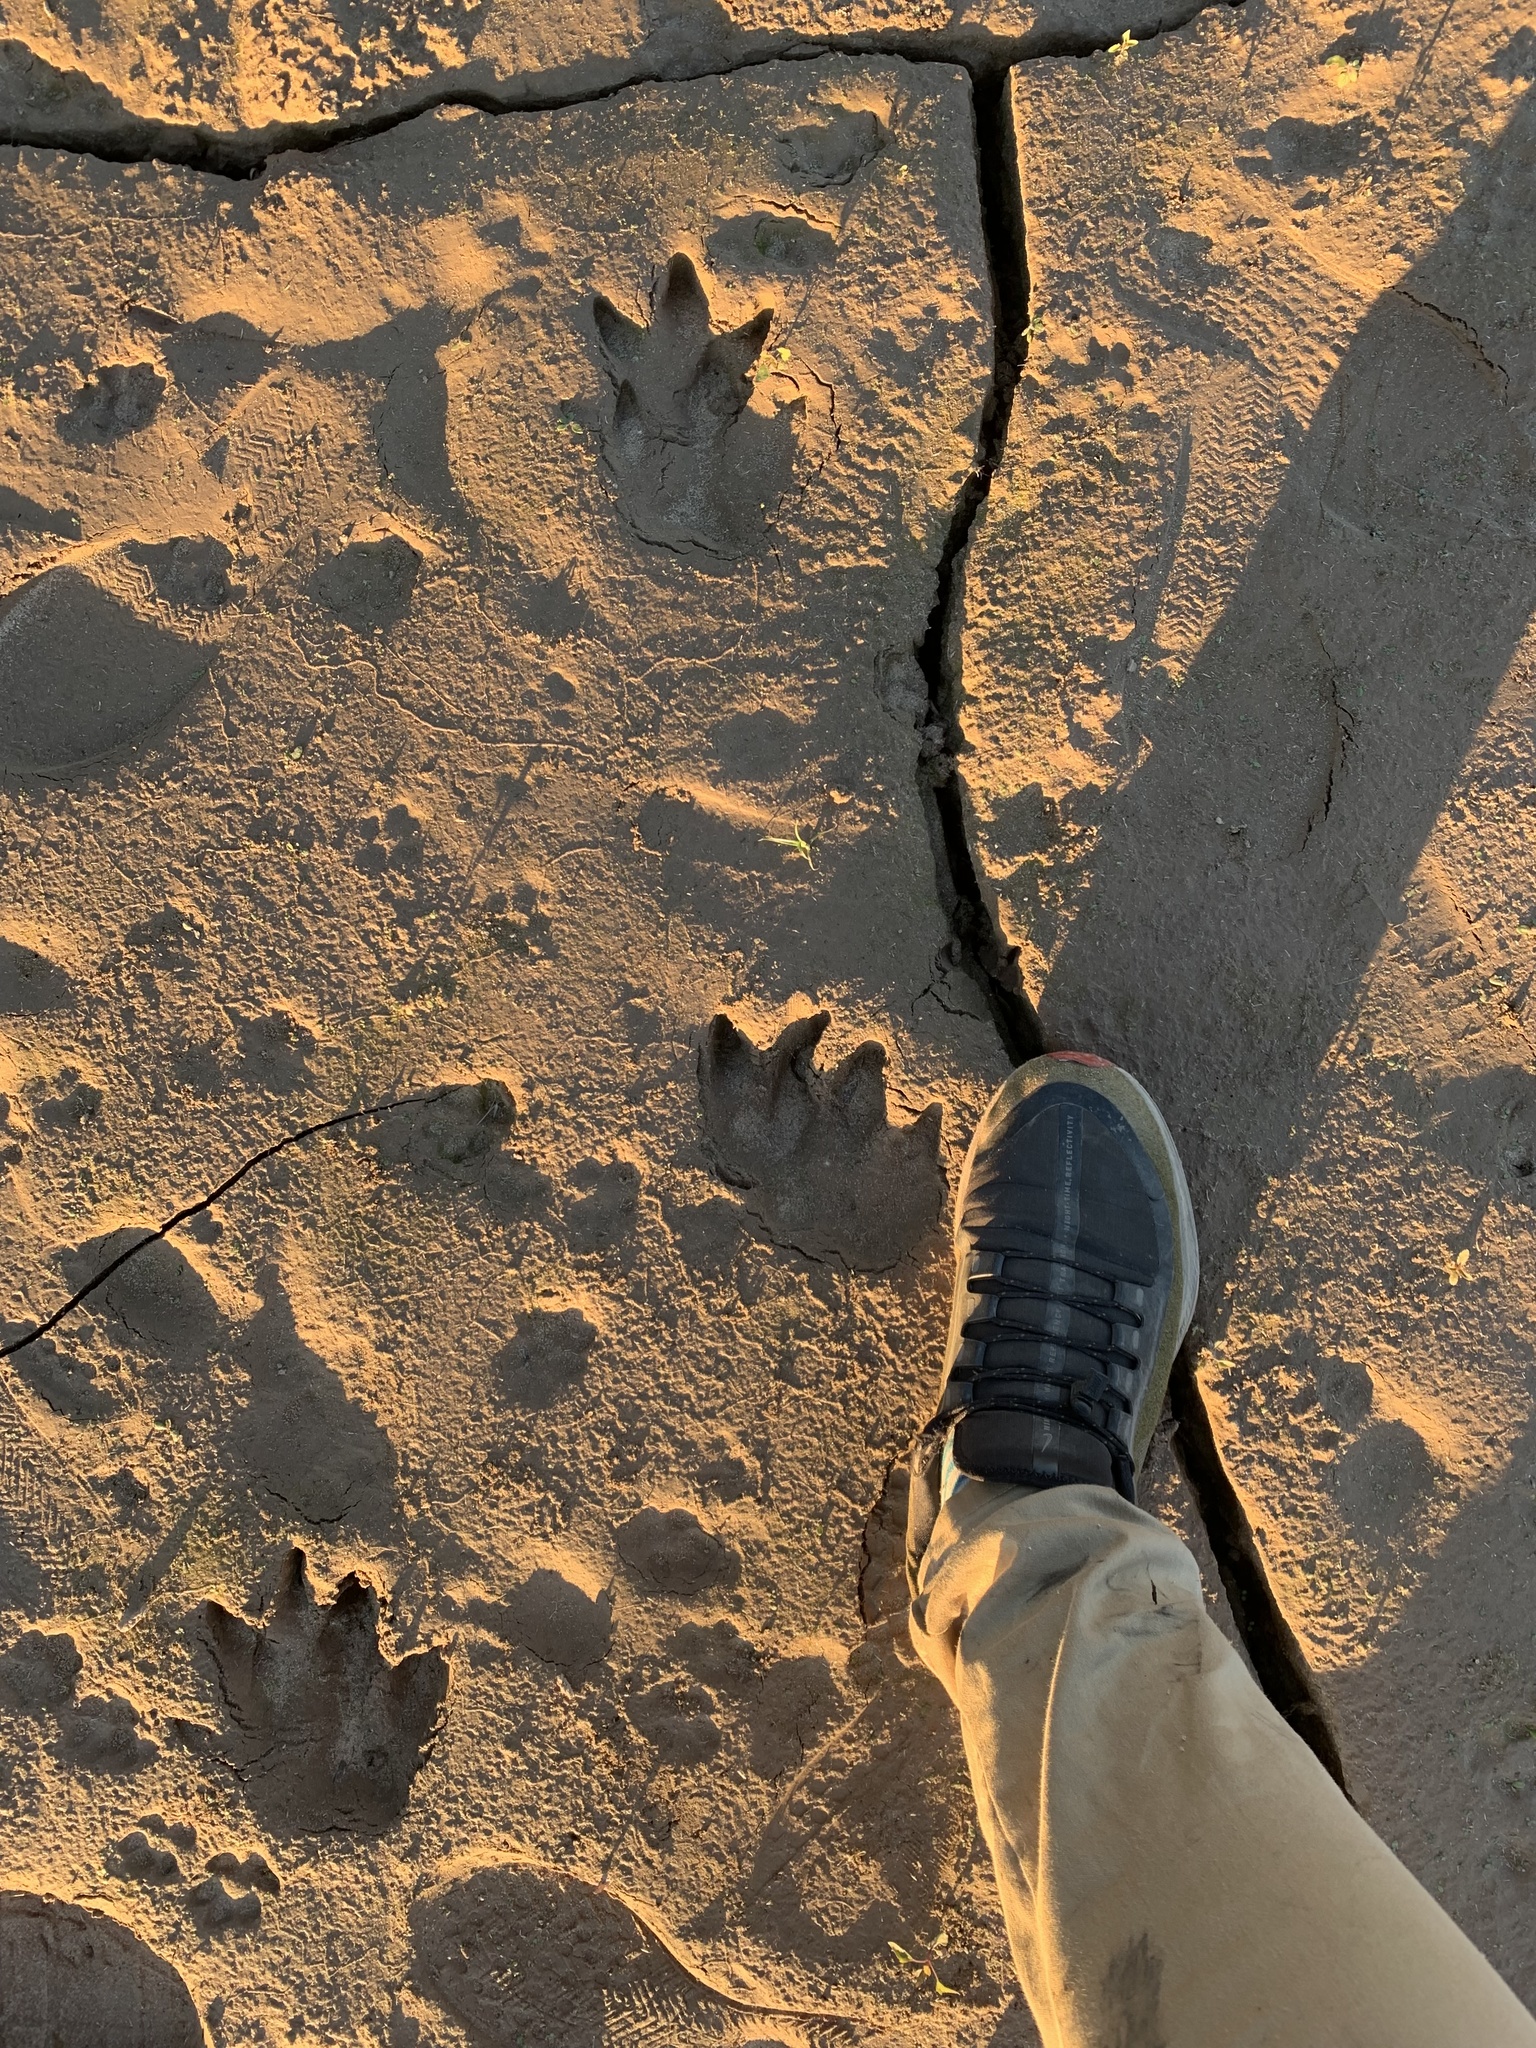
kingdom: Animalia
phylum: Chordata
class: Mammalia
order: Rodentia
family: Caviidae
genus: Hydrochoerus
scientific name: Hydrochoerus hydrochaeris
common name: Capybara
